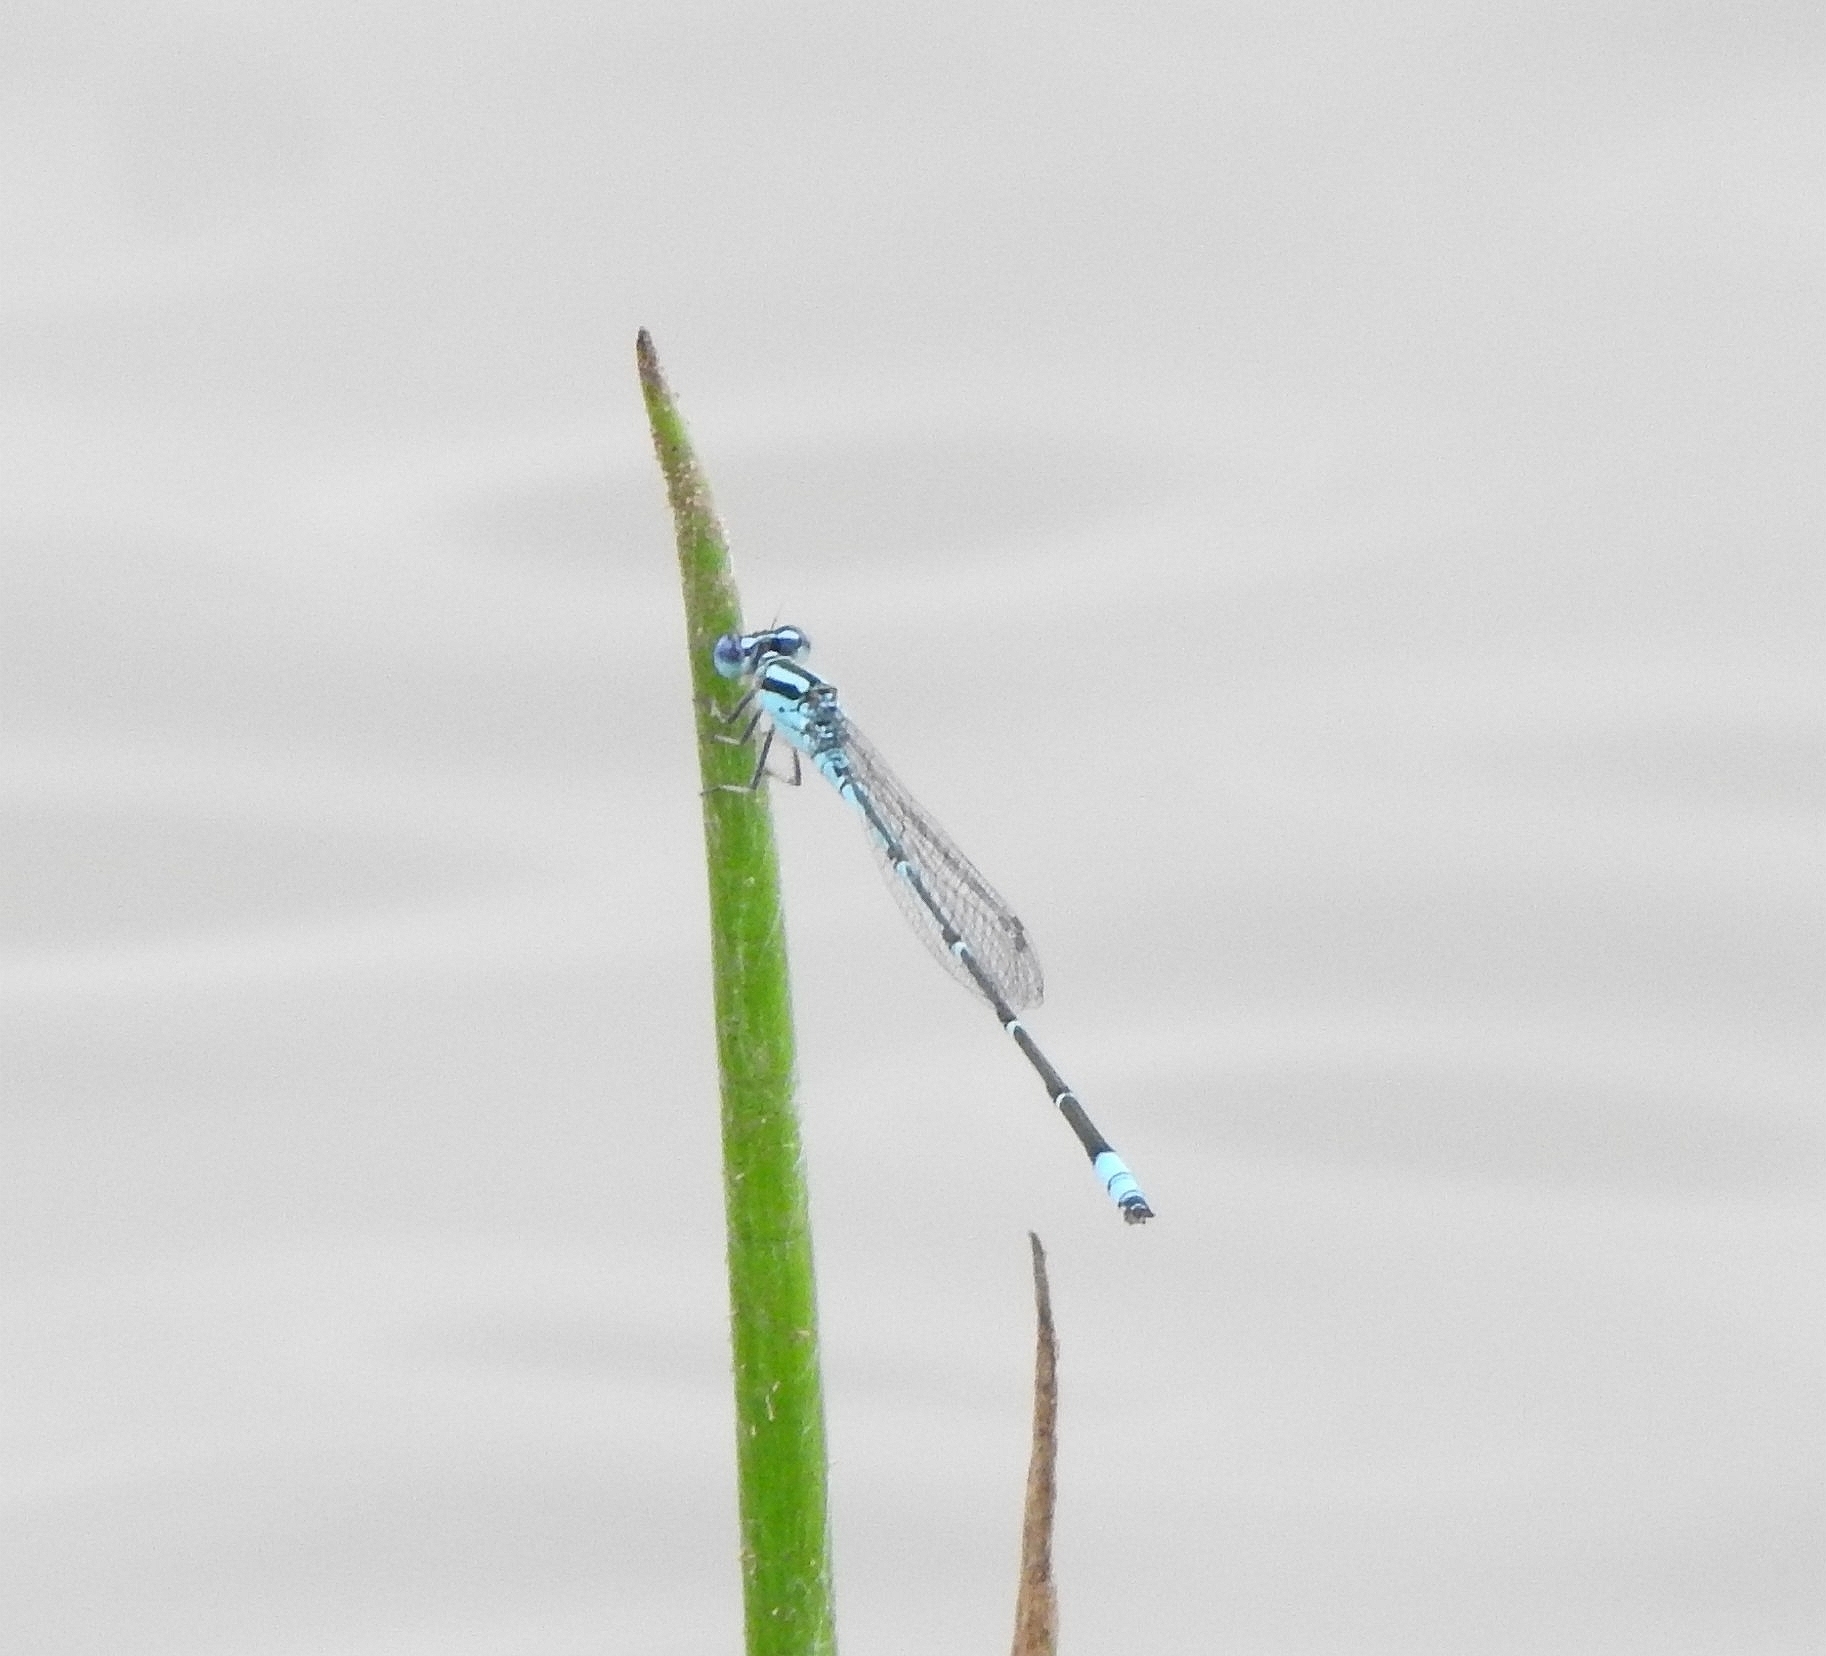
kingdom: Animalia
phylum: Arthropoda
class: Insecta
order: Odonata
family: Coenagrionidae
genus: Pseudagrion
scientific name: Pseudagrion microcephalum
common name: Blue riverdamsel
